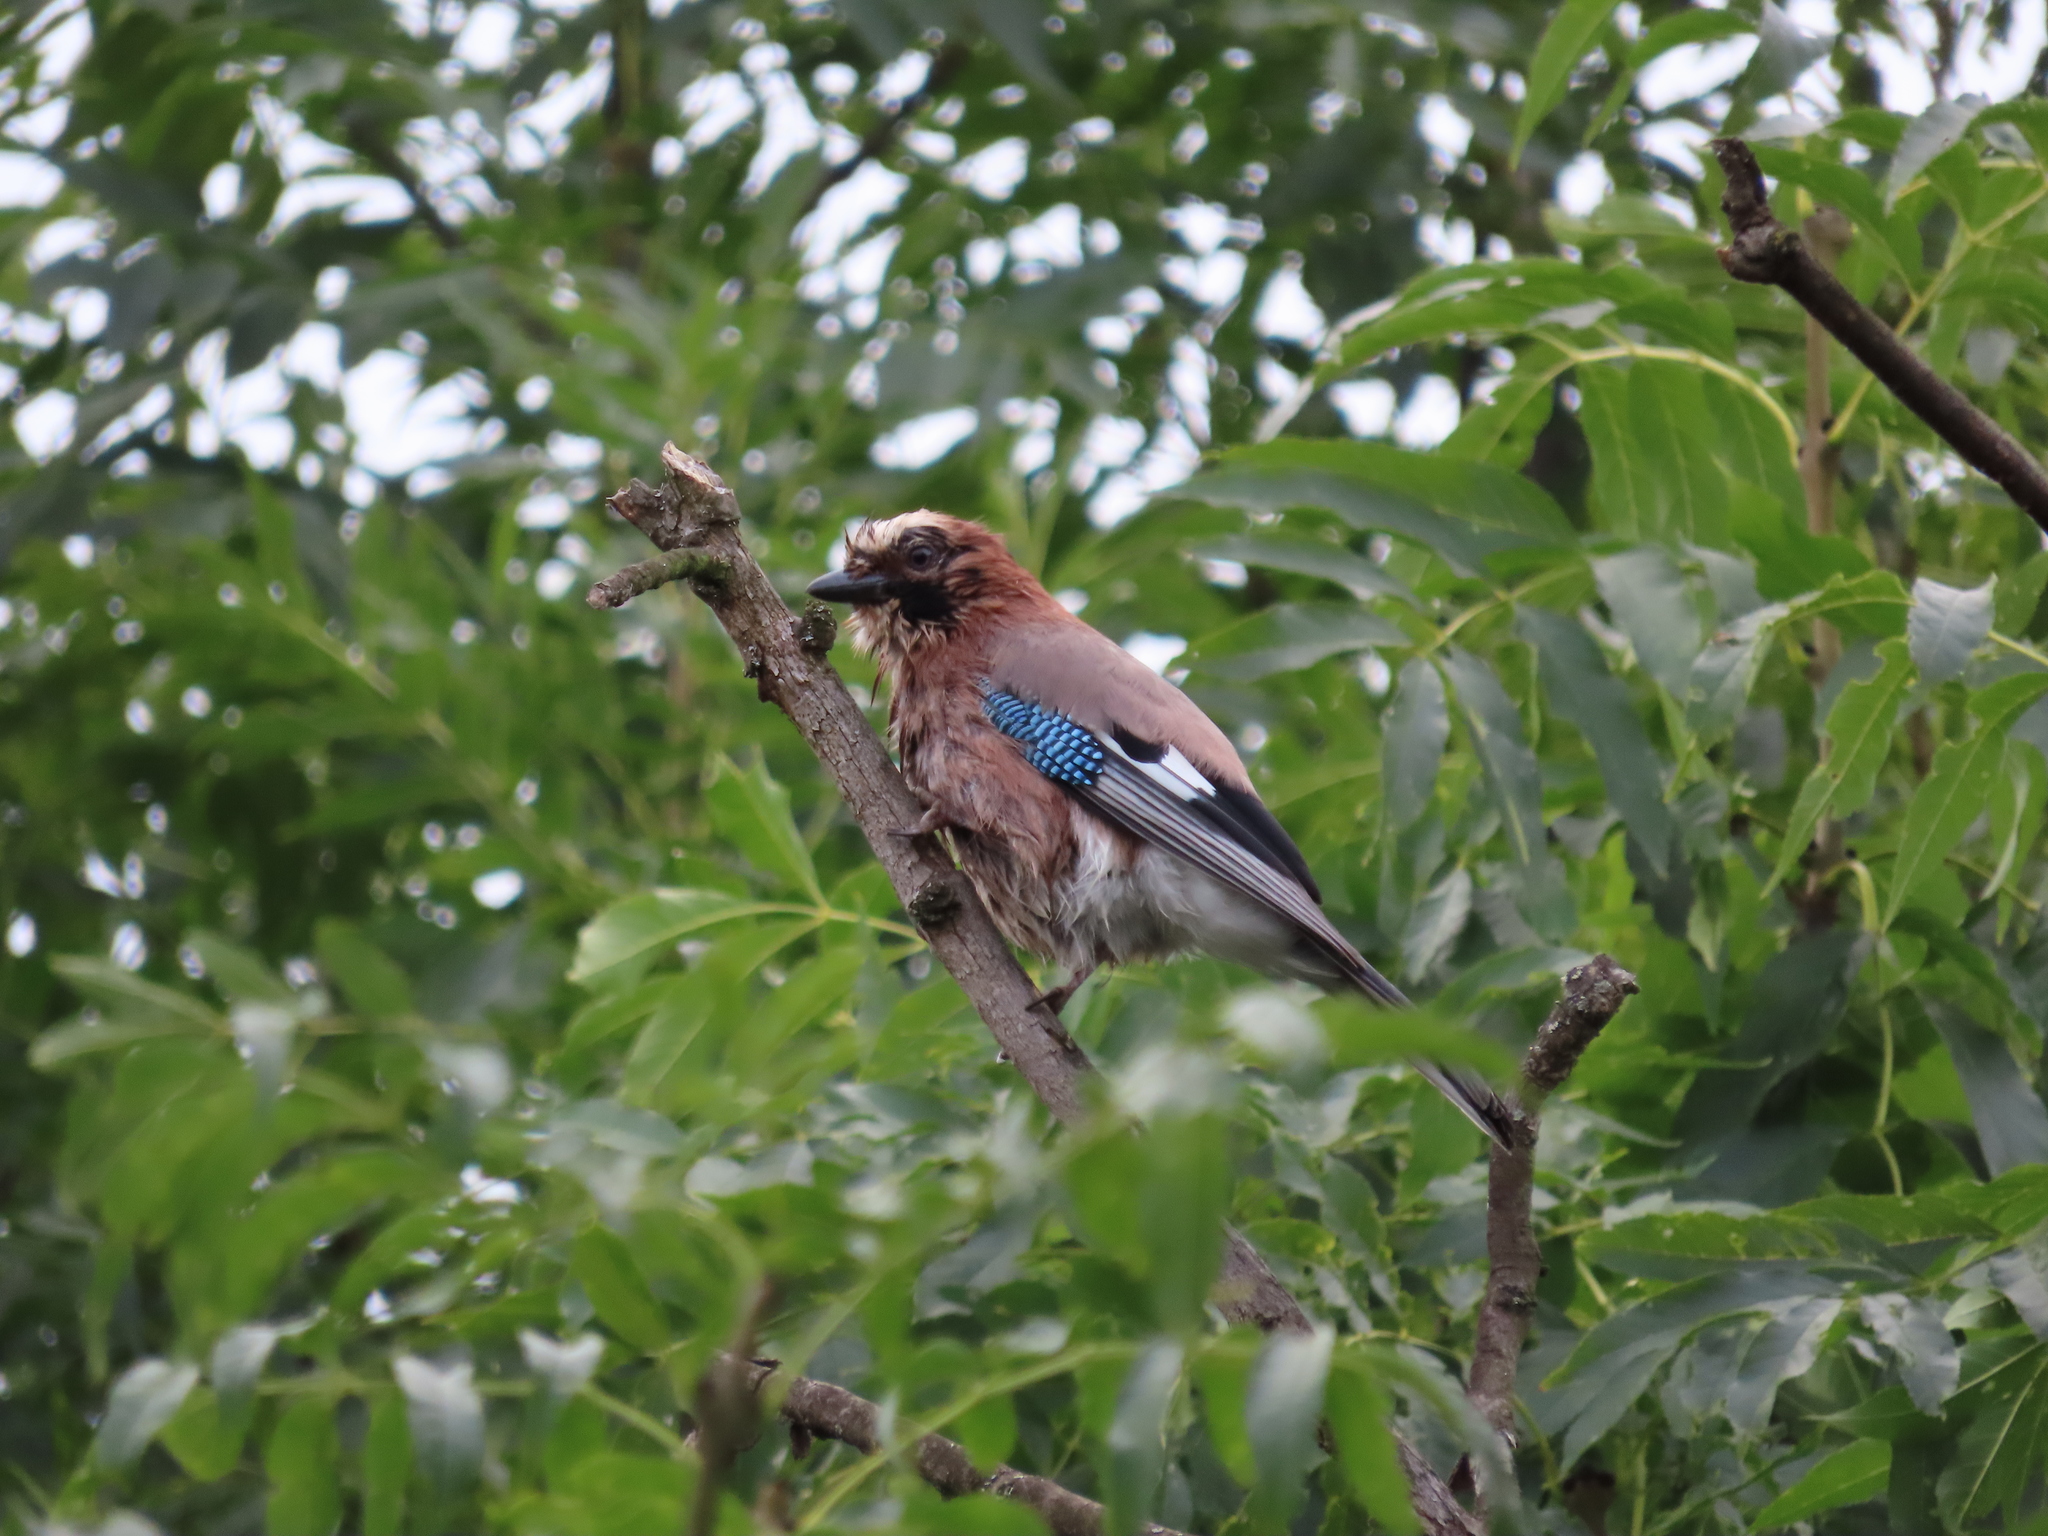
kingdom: Animalia
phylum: Chordata
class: Aves
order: Passeriformes
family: Corvidae
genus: Garrulus
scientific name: Garrulus glandarius
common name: Eurasian jay
